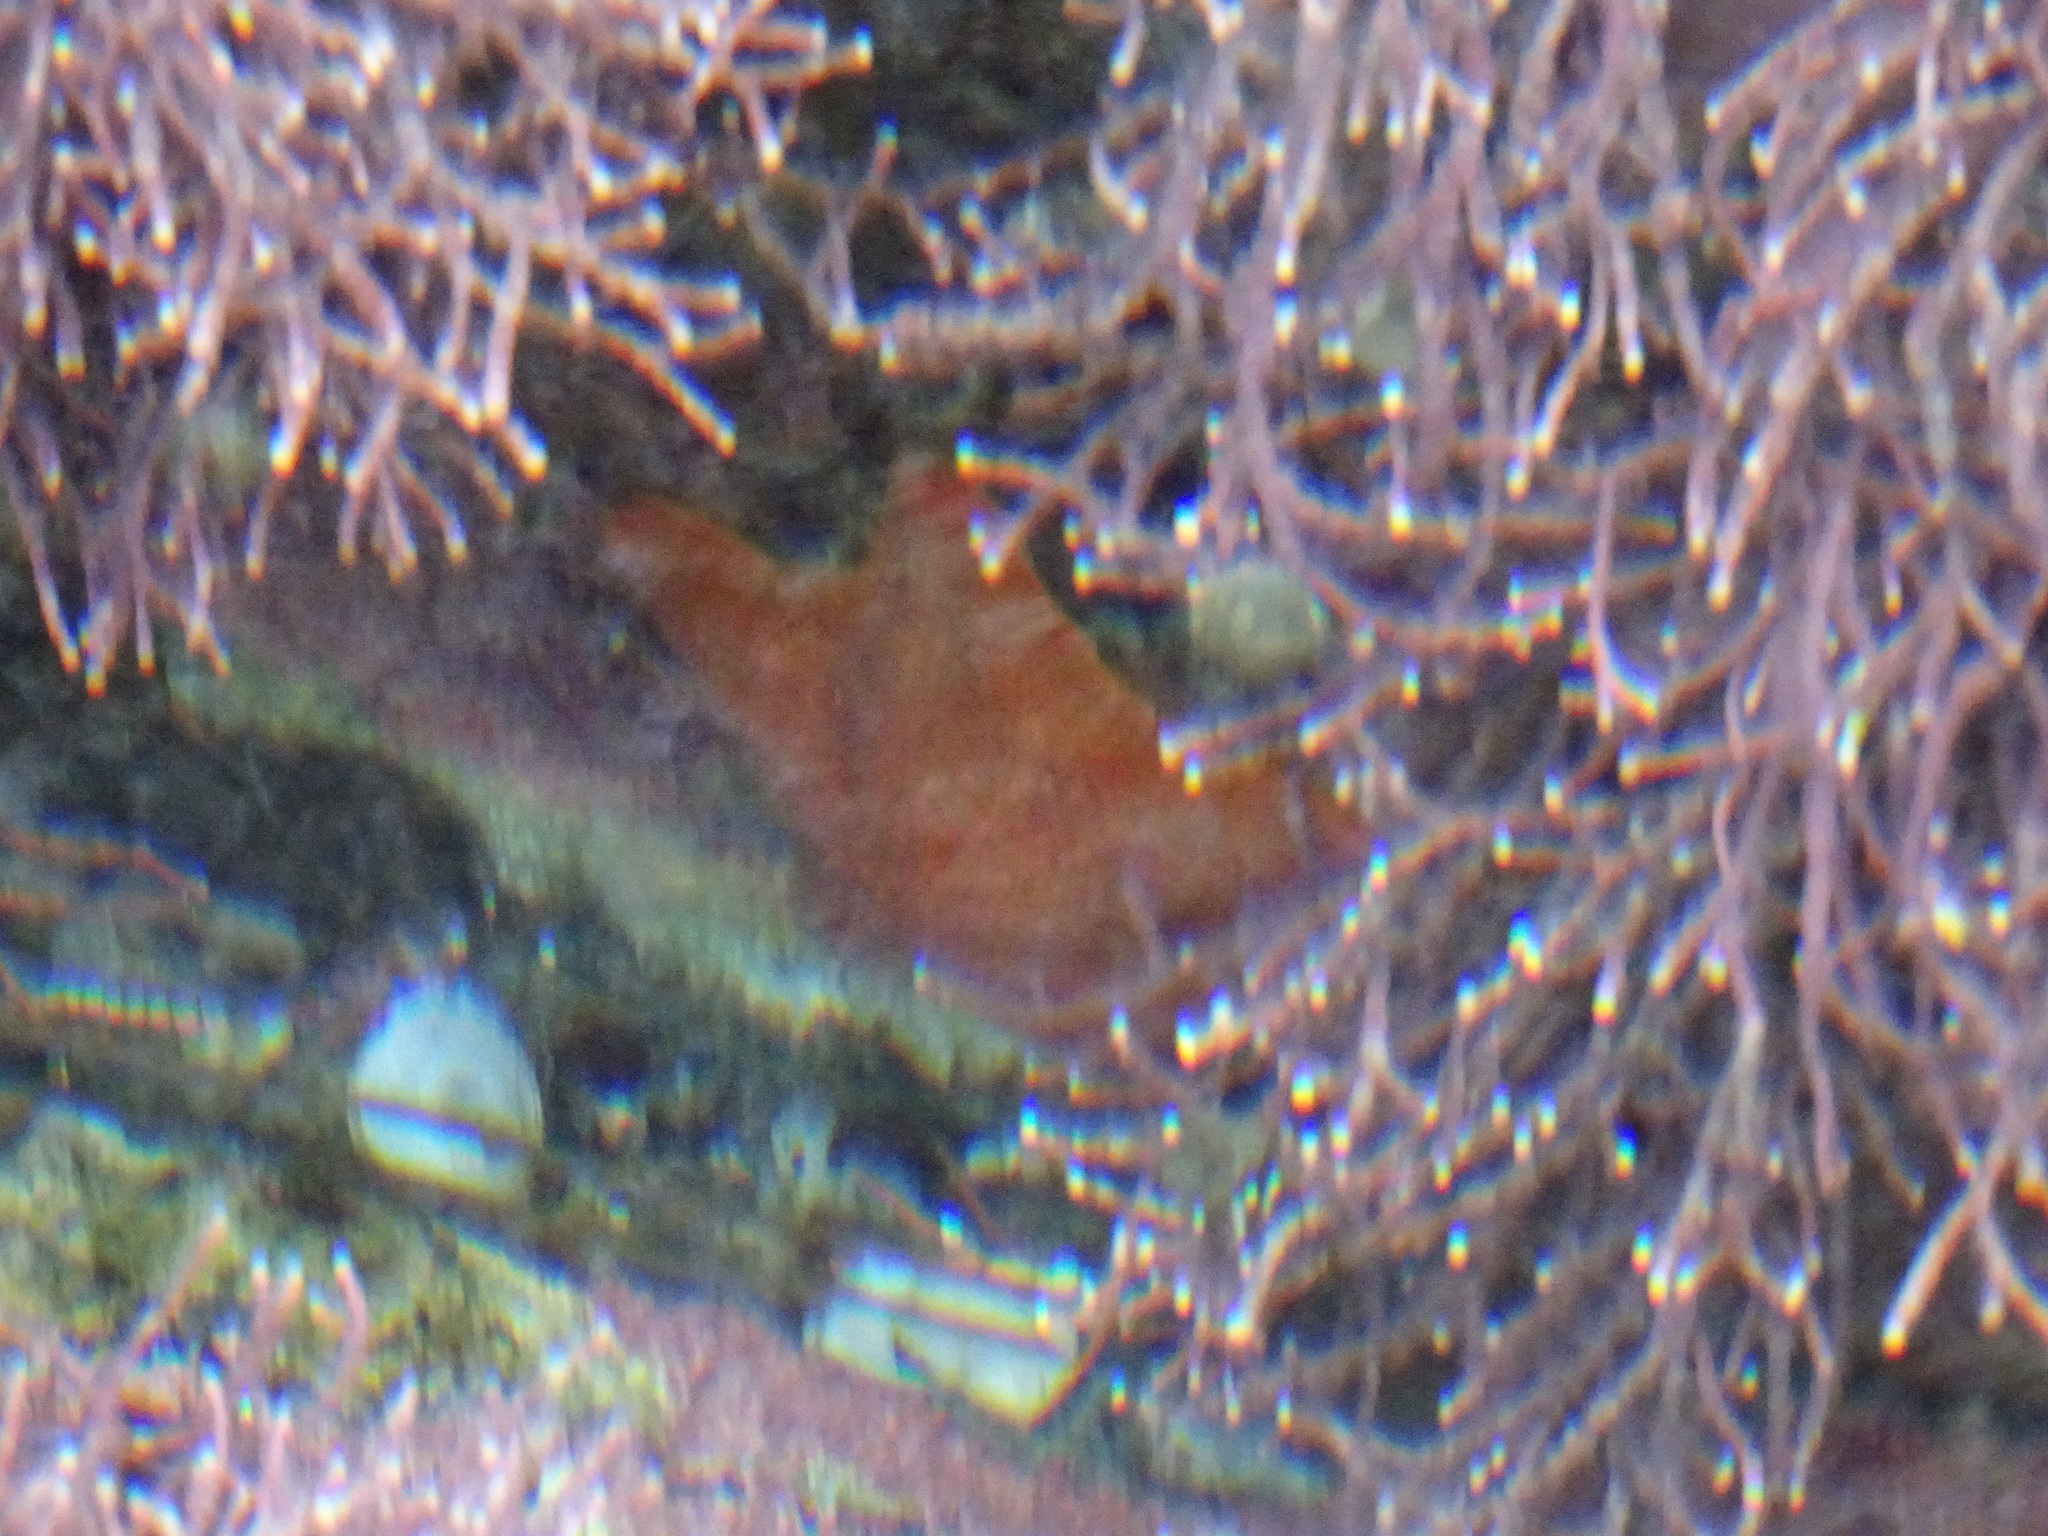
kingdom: Animalia
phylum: Echinodermata
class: Asteroidea
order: Valvatida
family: Asterinidae
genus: Patiria
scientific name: Patiria miniata
